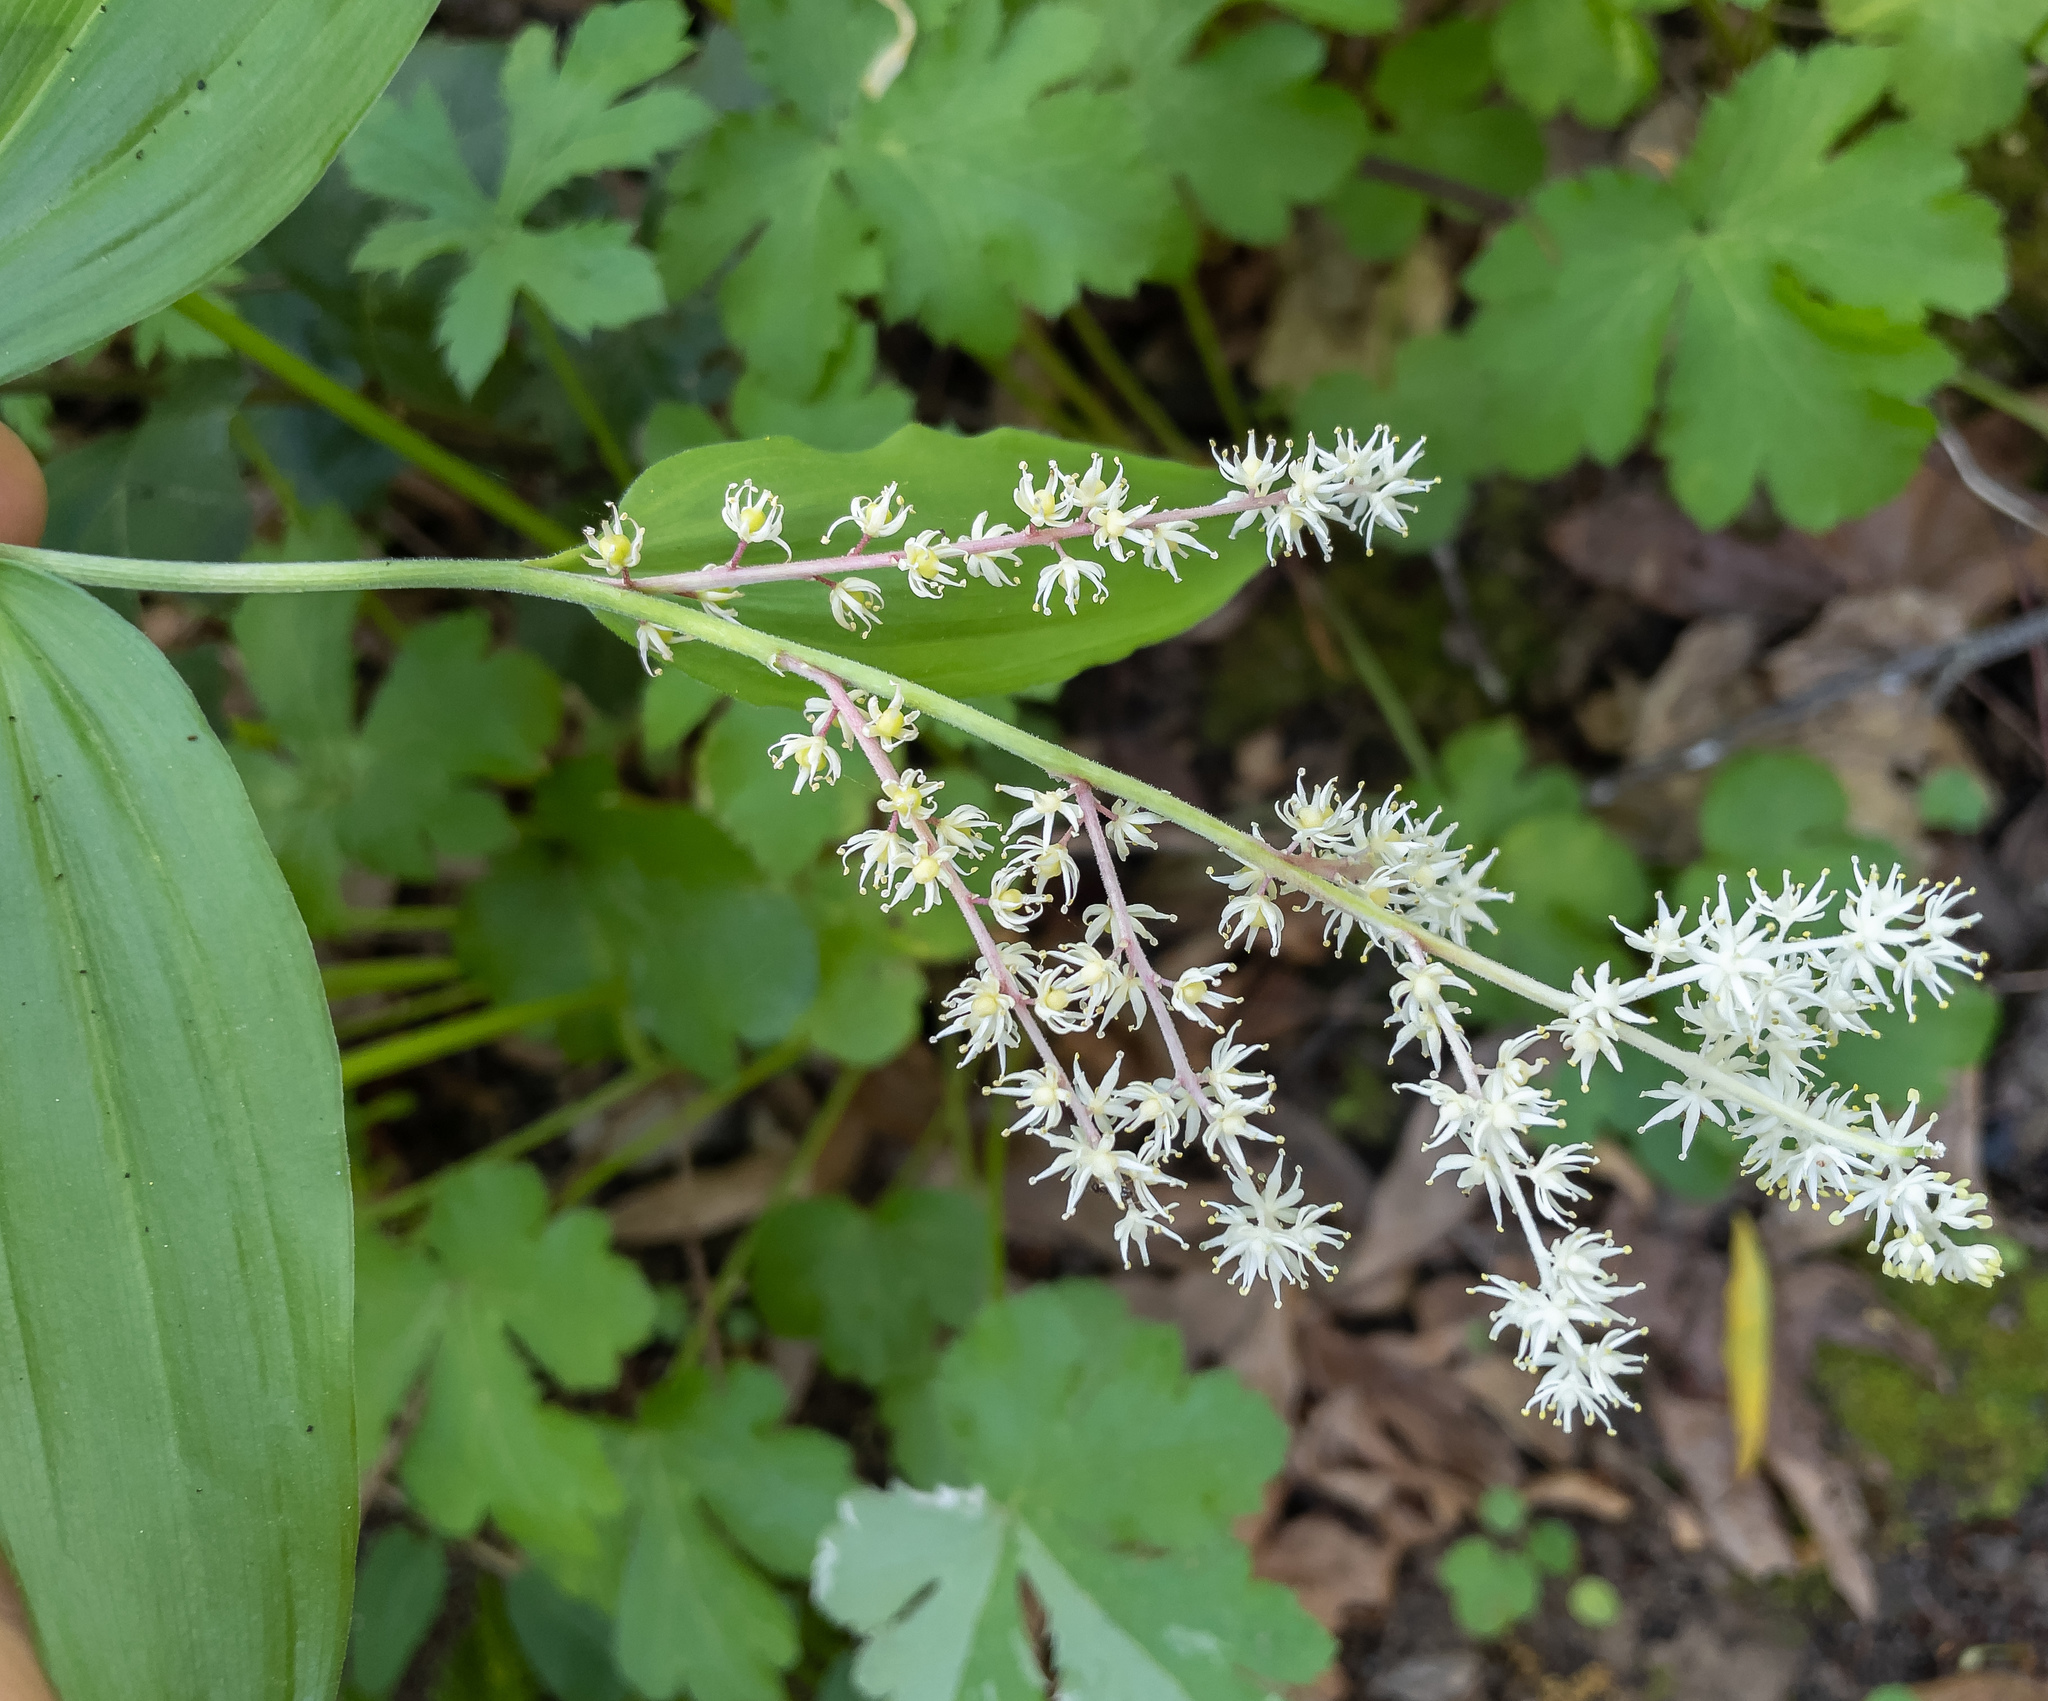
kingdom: Plantae
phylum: Tracheophyta
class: Liliopsida
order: Asparagales
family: Asparagaceae
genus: Maianthemum
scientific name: Maianthemum racemosum
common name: False spikenard
